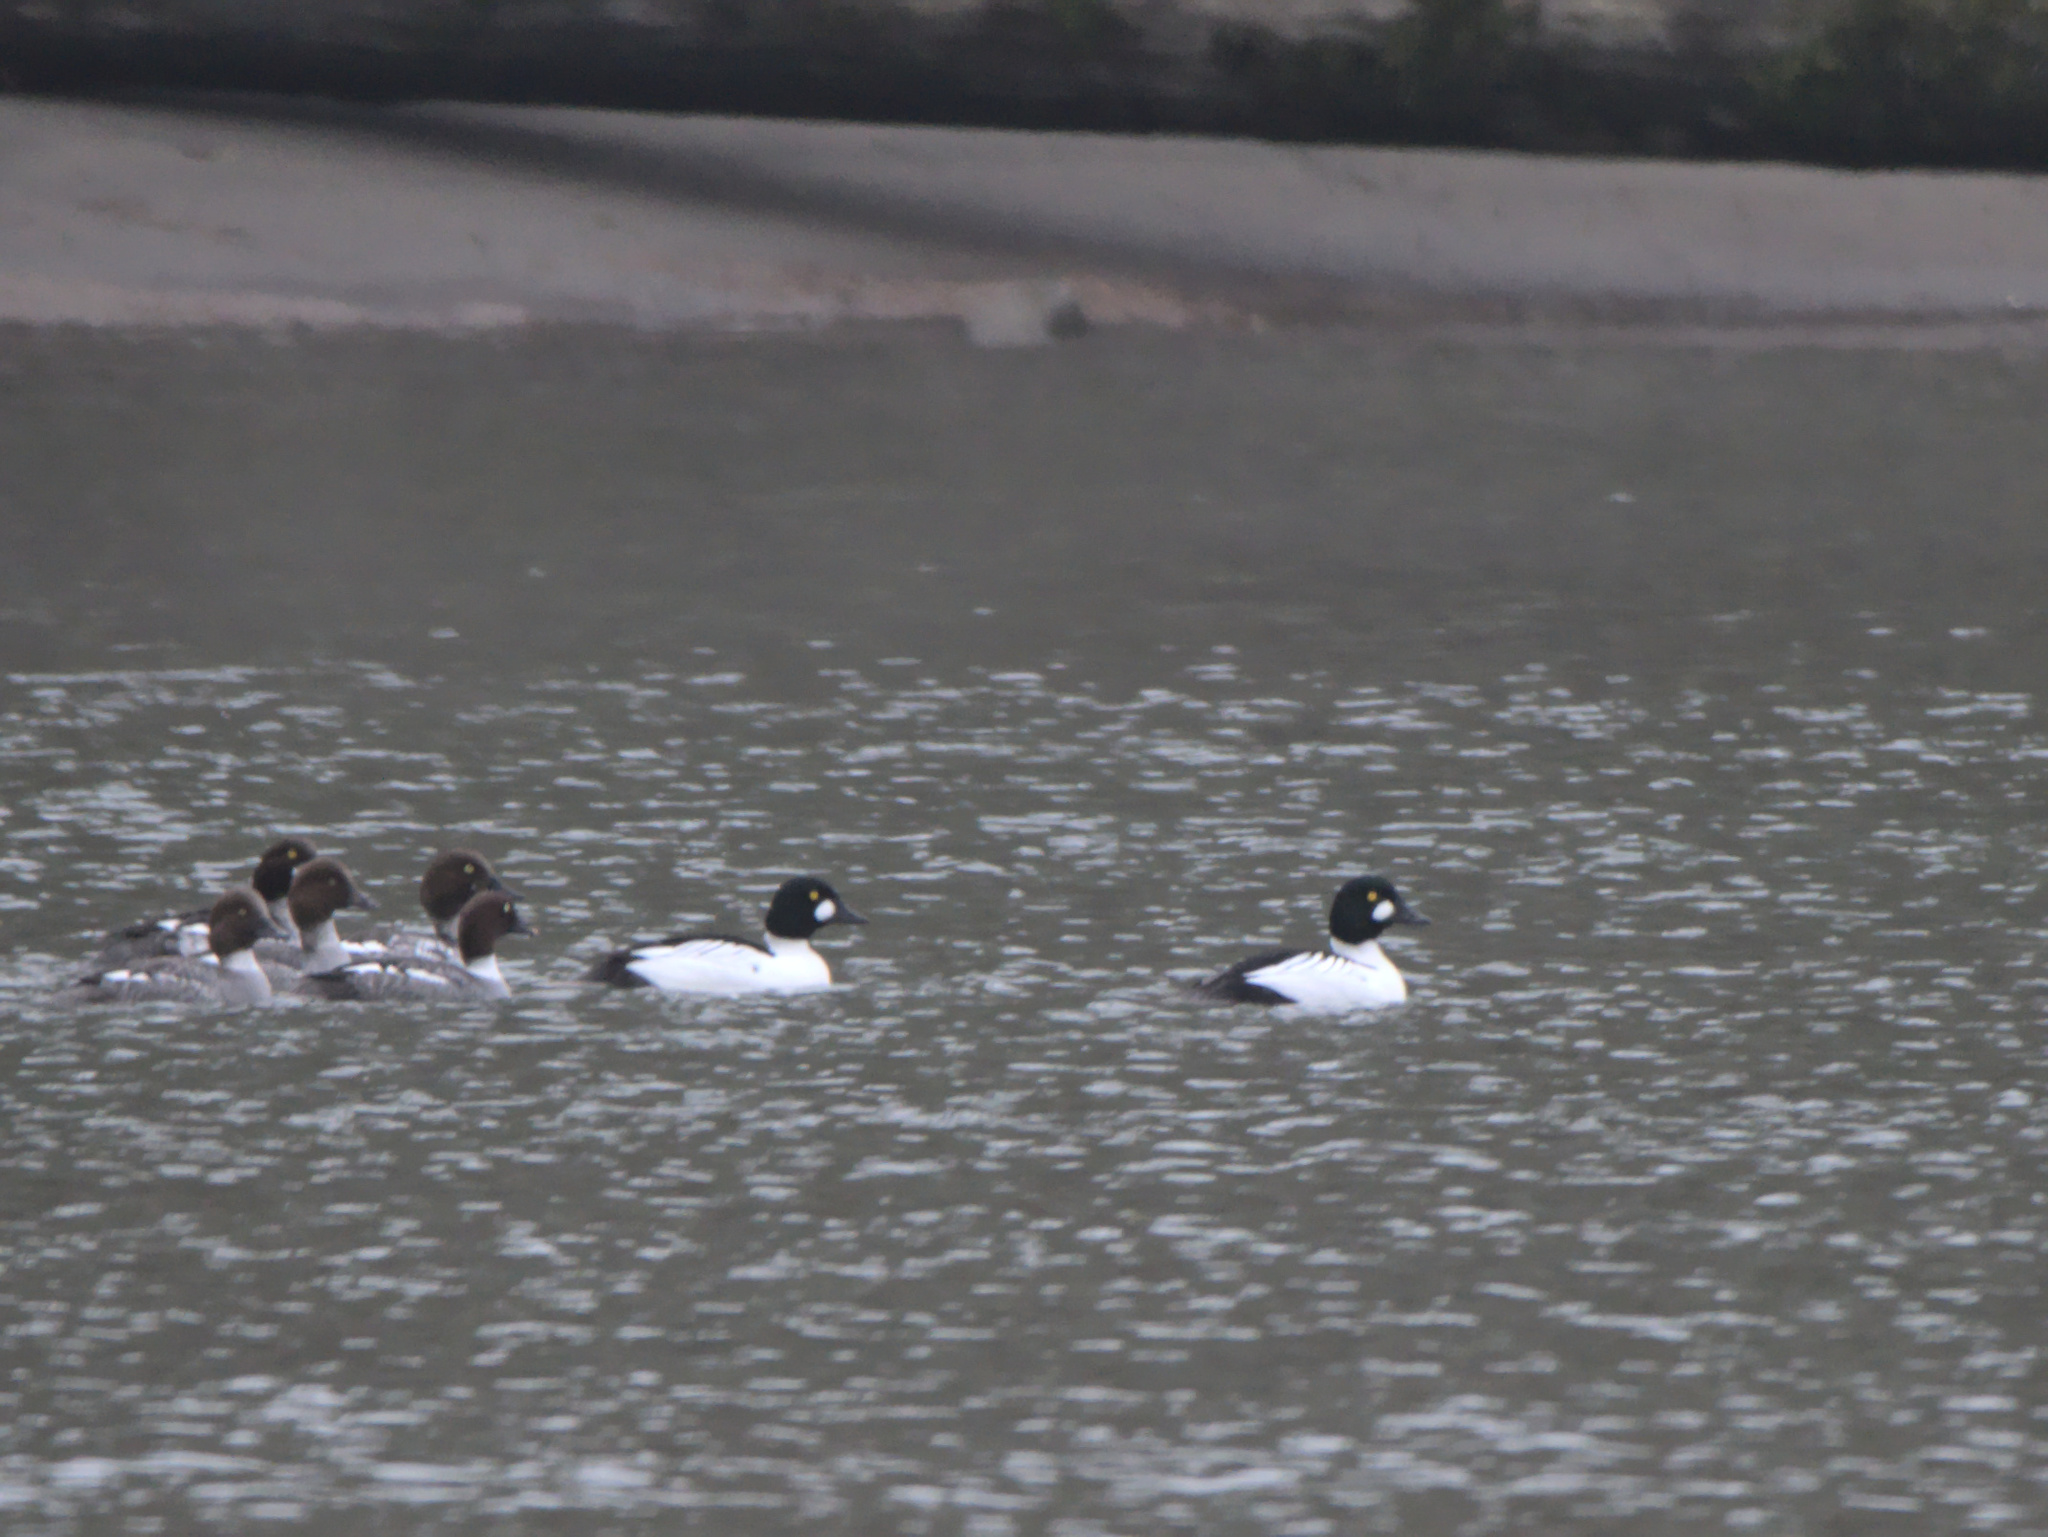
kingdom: Animalia
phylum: Chordata
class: Aves
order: Anseriformes
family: Anatidae
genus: Bucephala
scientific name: Bucephala clangula
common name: Common goldeneye
